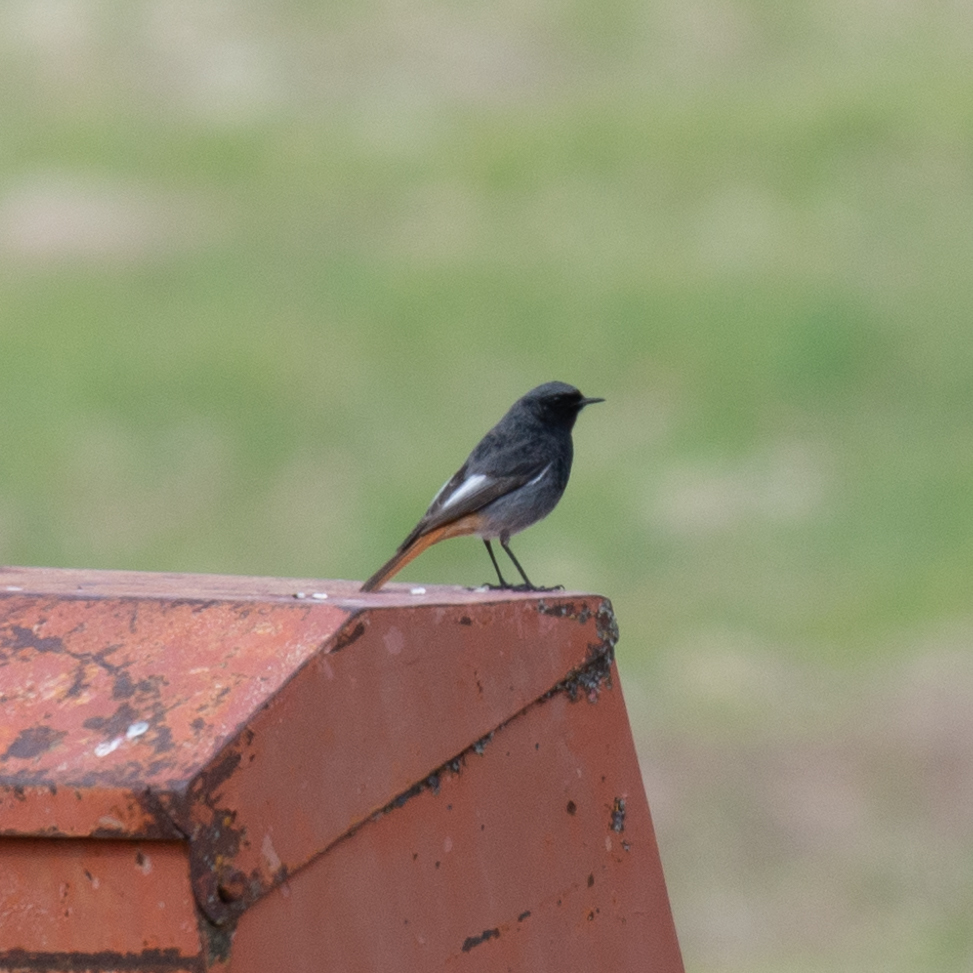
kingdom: Animalia
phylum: Chordata
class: Aves
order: Passeriformes
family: Muscicapidae
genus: Phoenicurus
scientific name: Phoenicurus ochruros
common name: Black redstart
